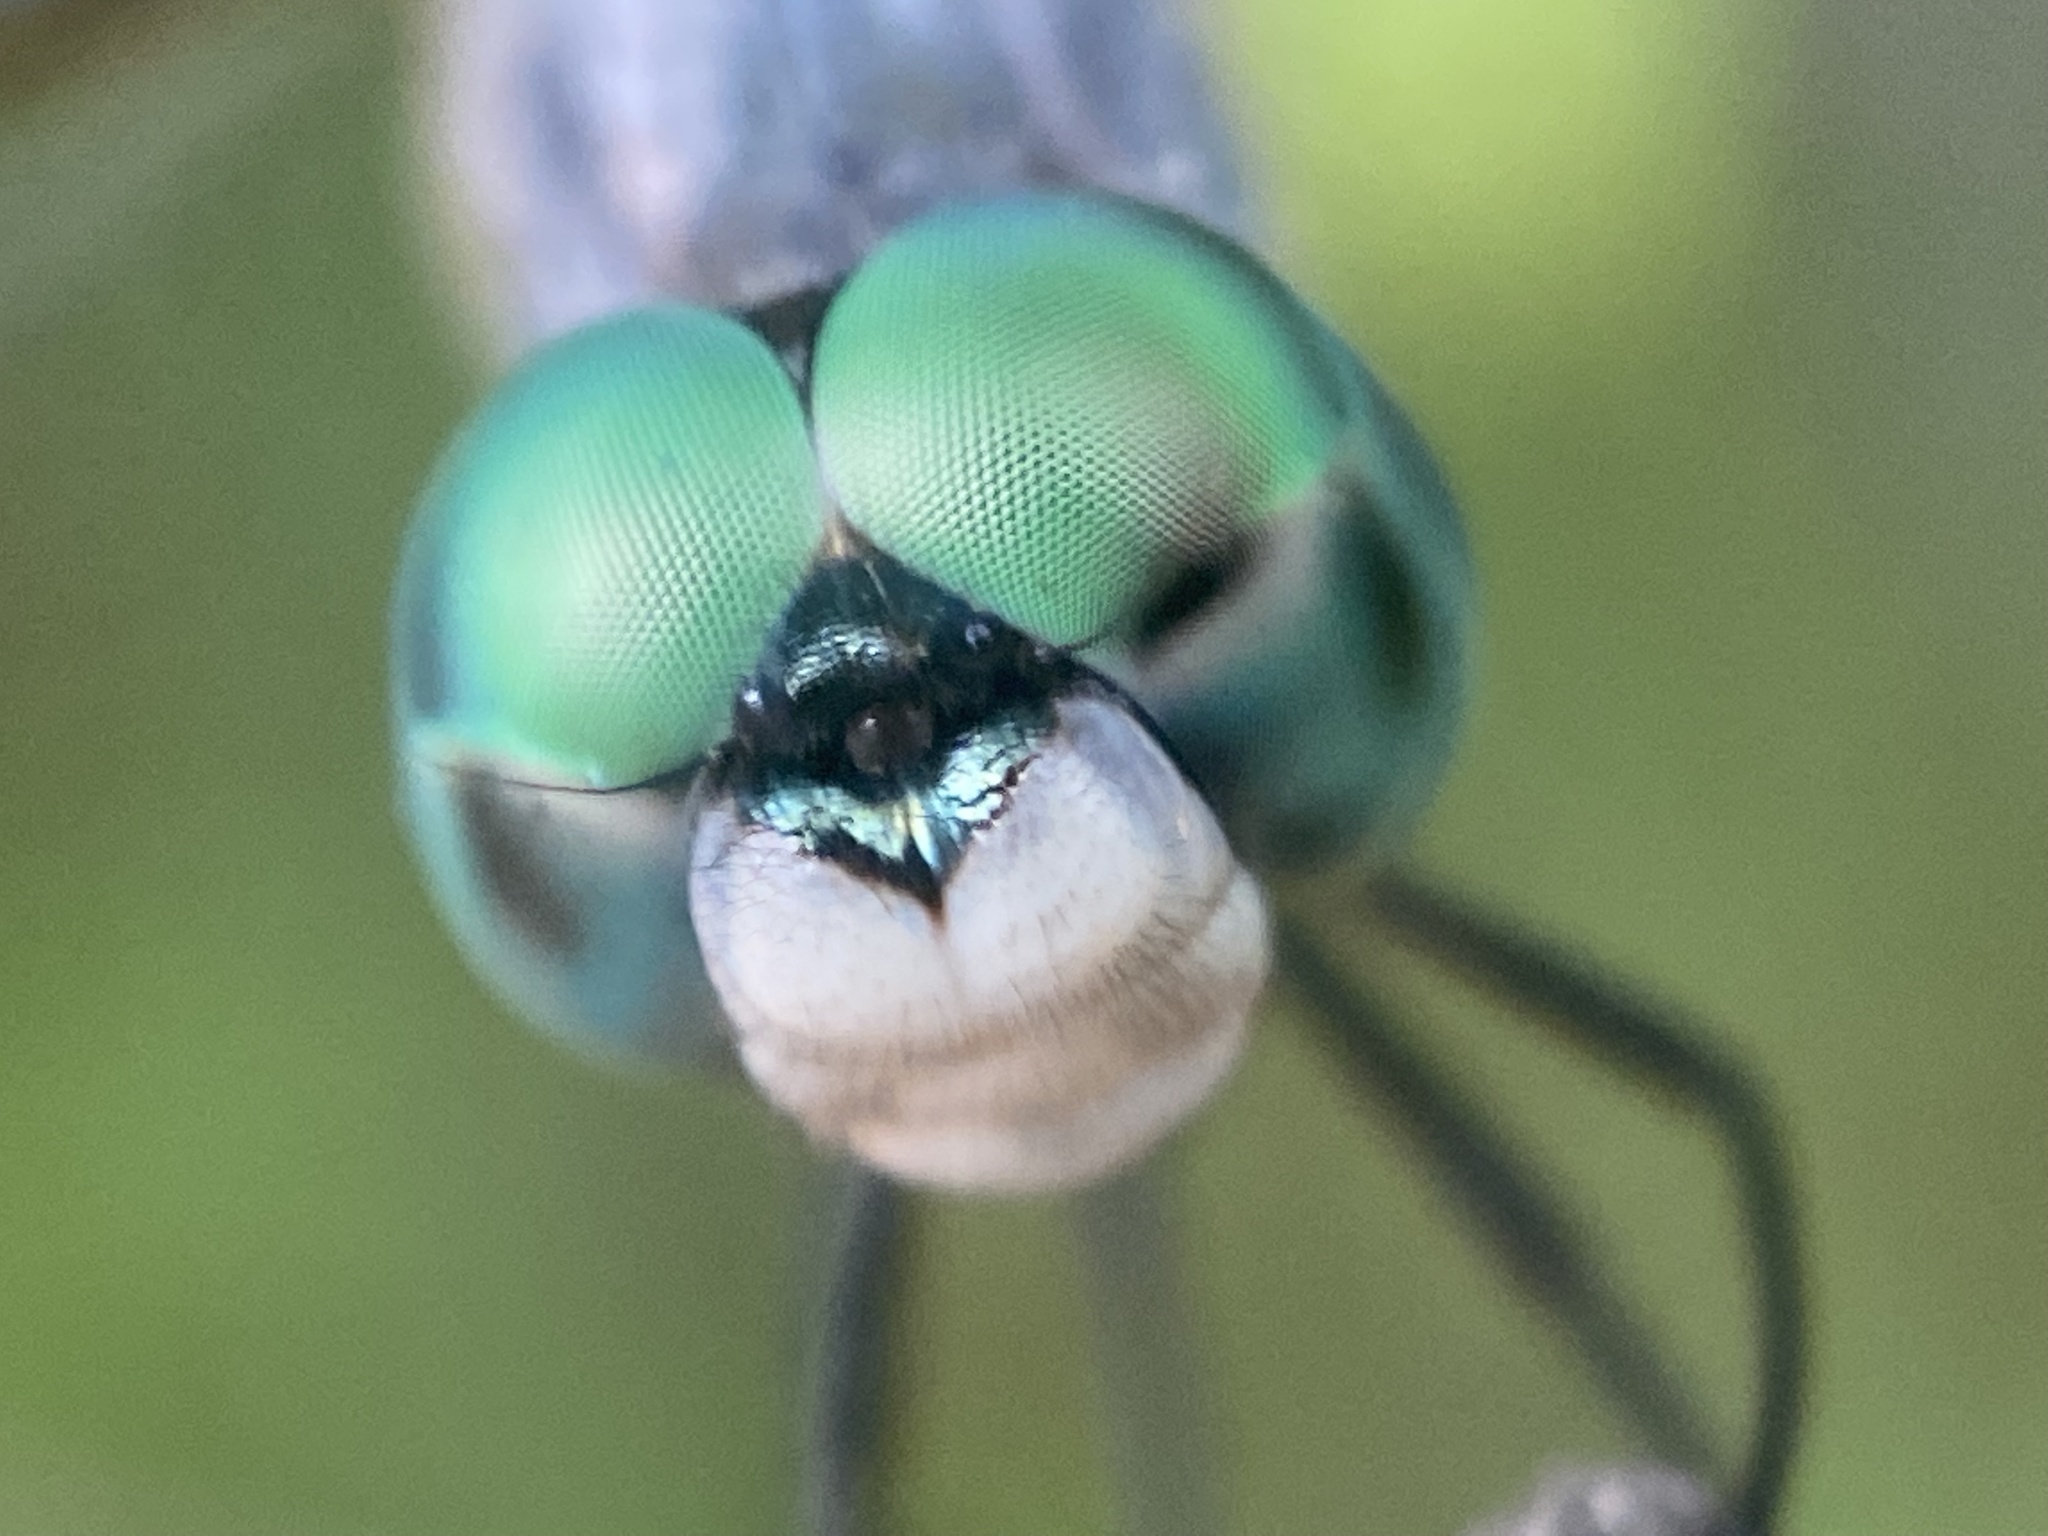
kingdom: Animalia
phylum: Arthropoda
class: Insecta
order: Odonata
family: Libellulidae
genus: Pachydiplax
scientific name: Pachydiplax longipennis
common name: Blue dasher
